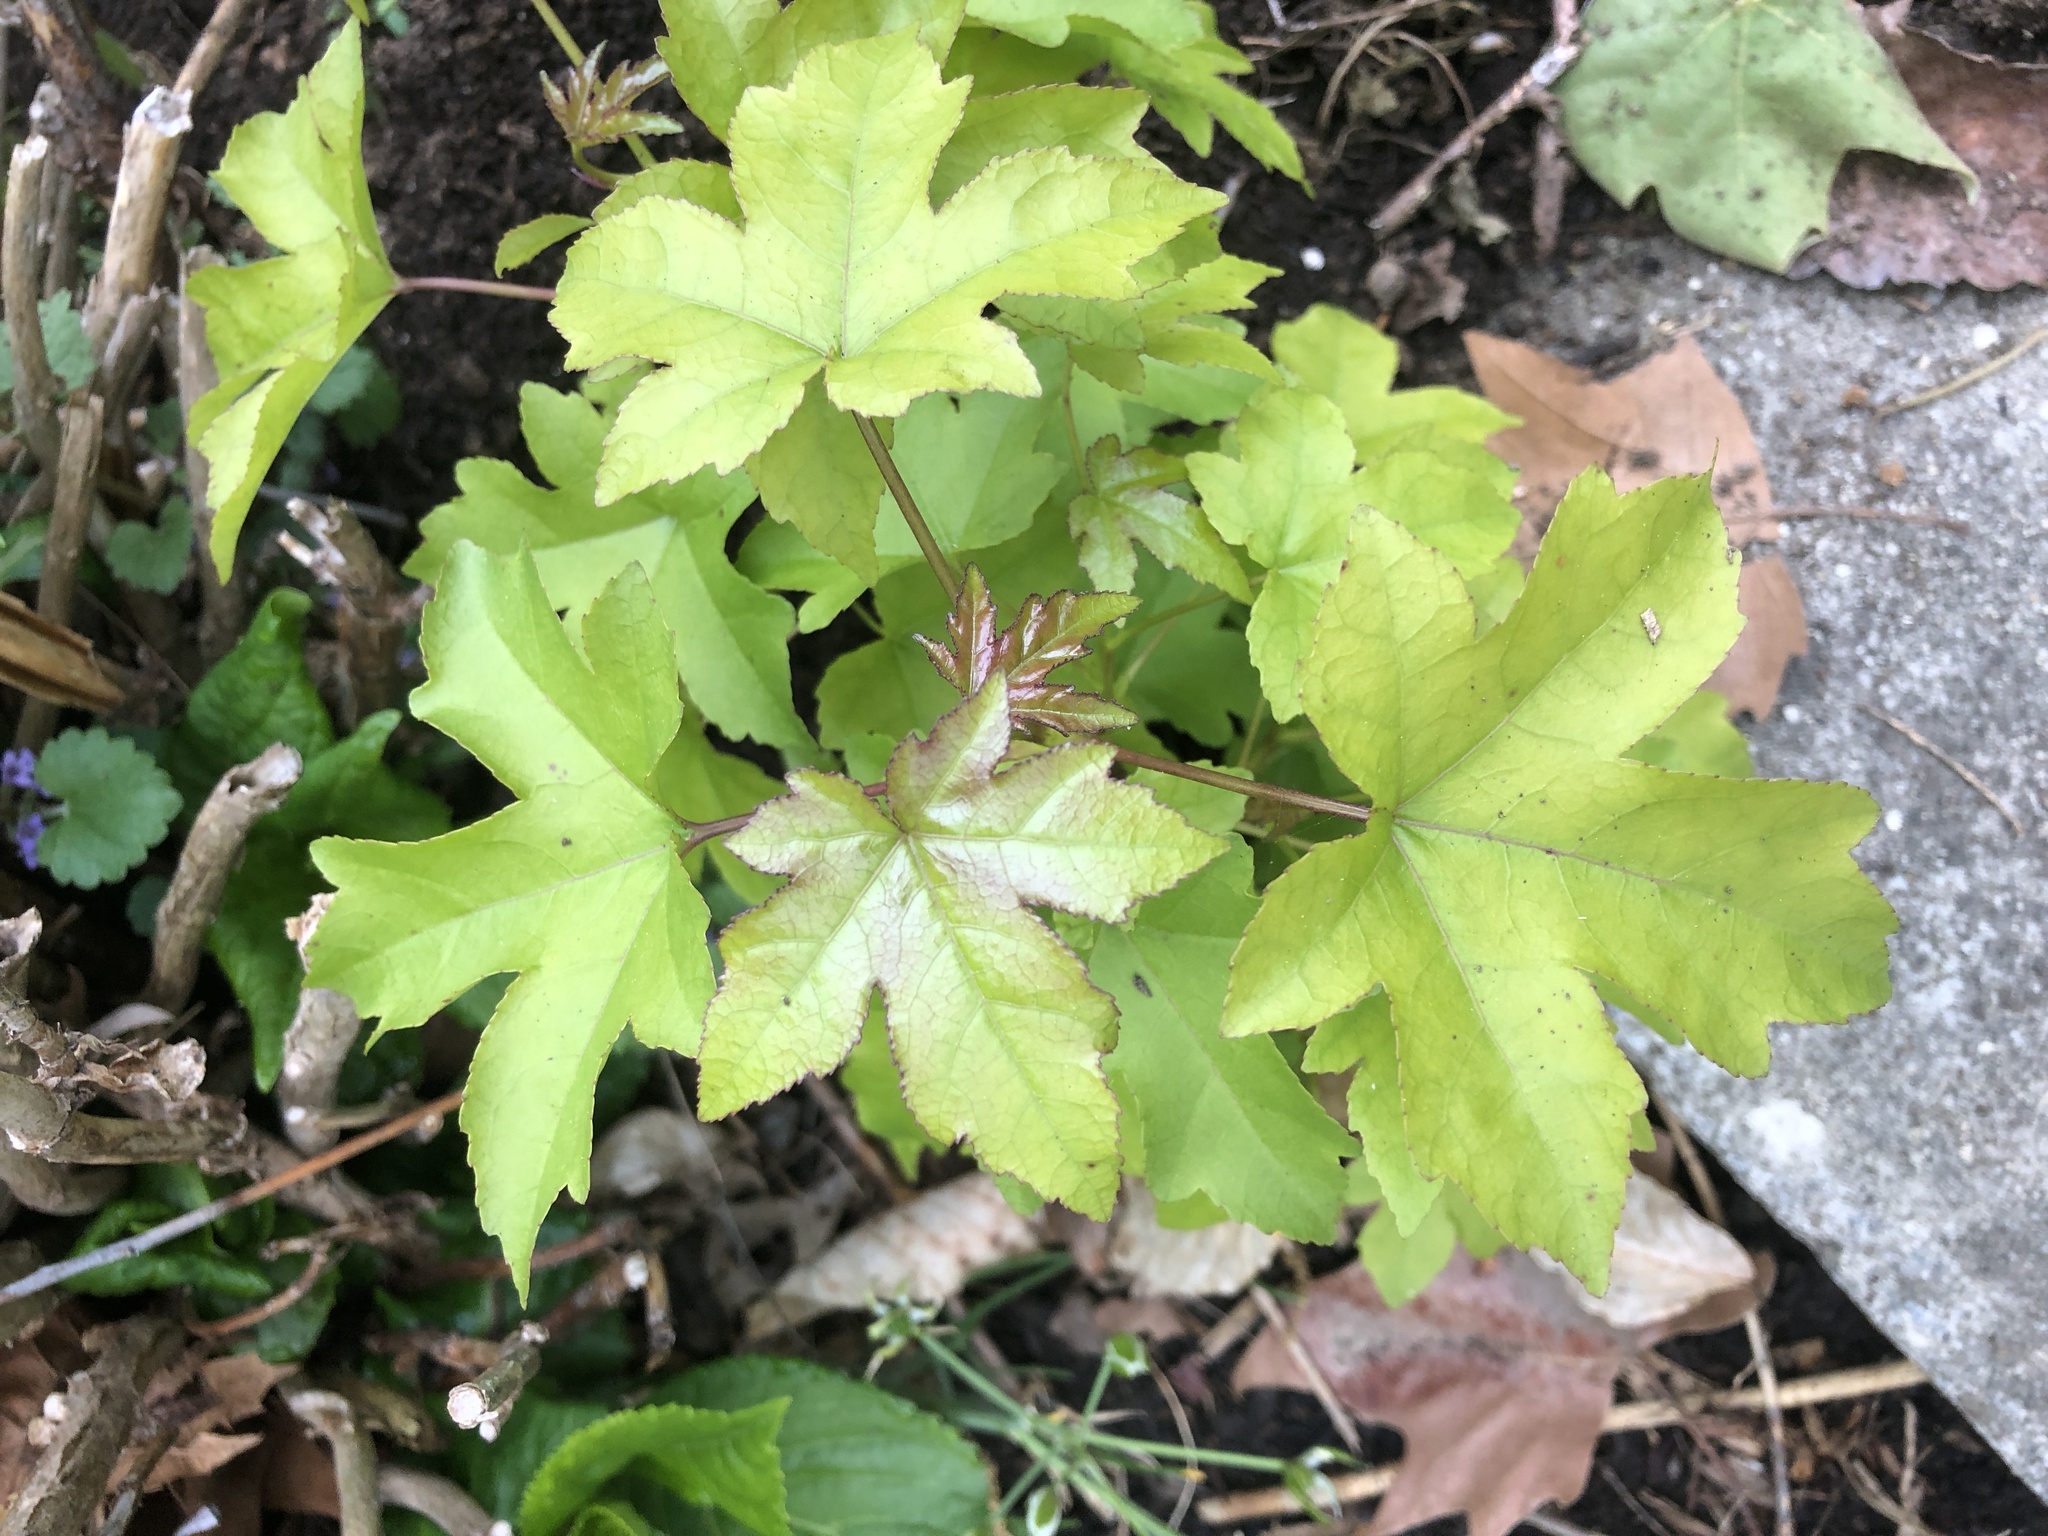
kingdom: Plantae
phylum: Tracheophyta
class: Magnoliopsida
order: Saxifragales
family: Altingiaceae
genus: Liquidambar
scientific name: Liquidambar styraciflua
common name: Sweet gum
